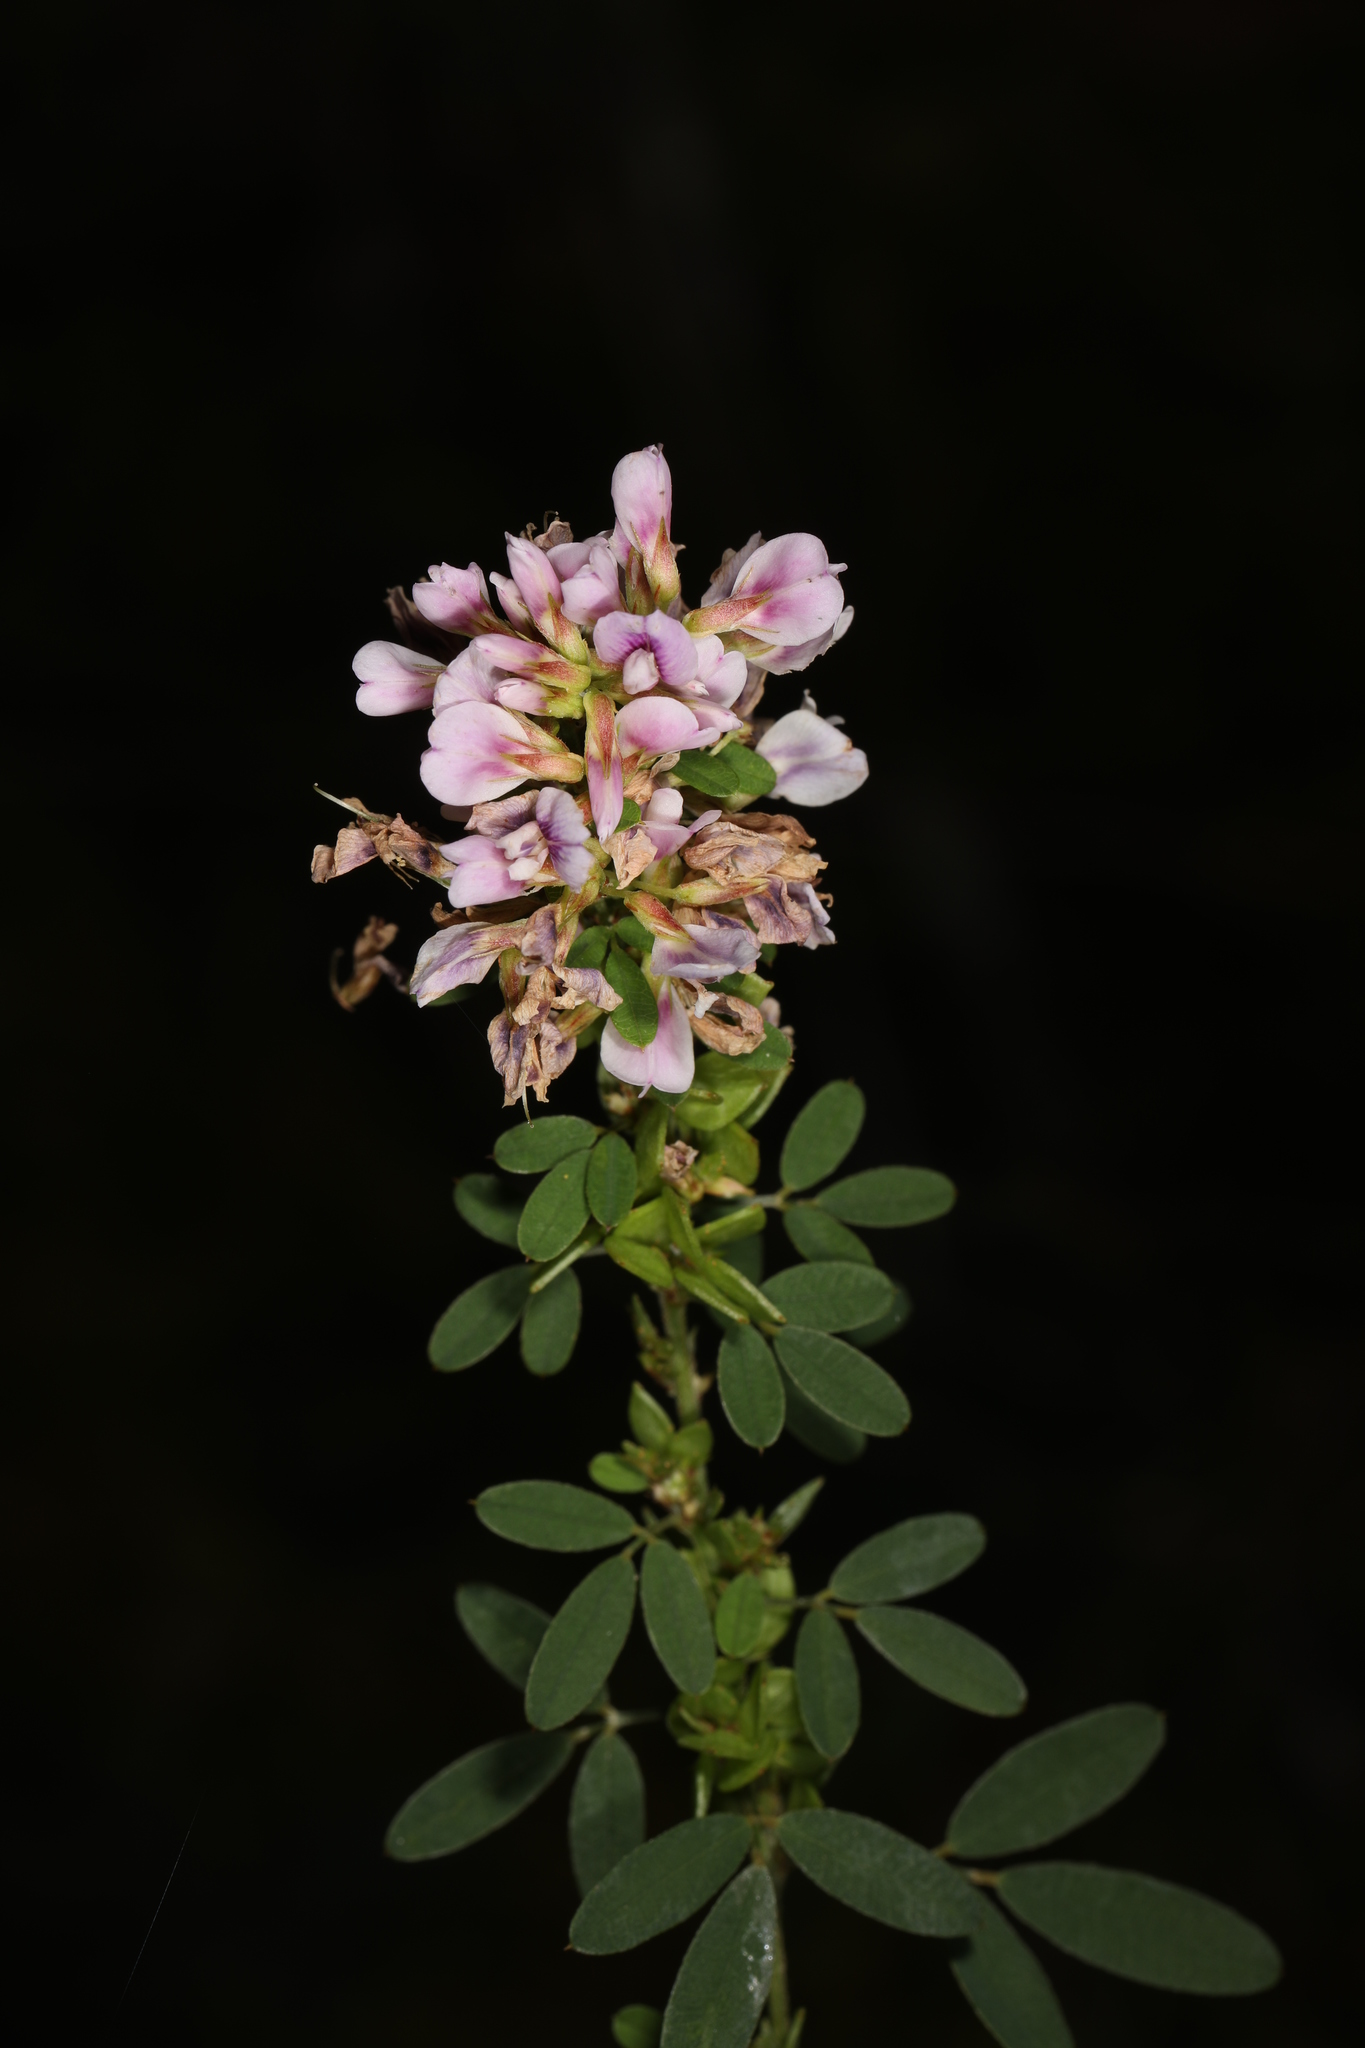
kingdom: Plantae
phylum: Tracheophyta
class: Magnoliopsida
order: Fabales
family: Fabaceae
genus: Lespedeza
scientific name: Lespedeza virginica
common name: Slender bush-clover
